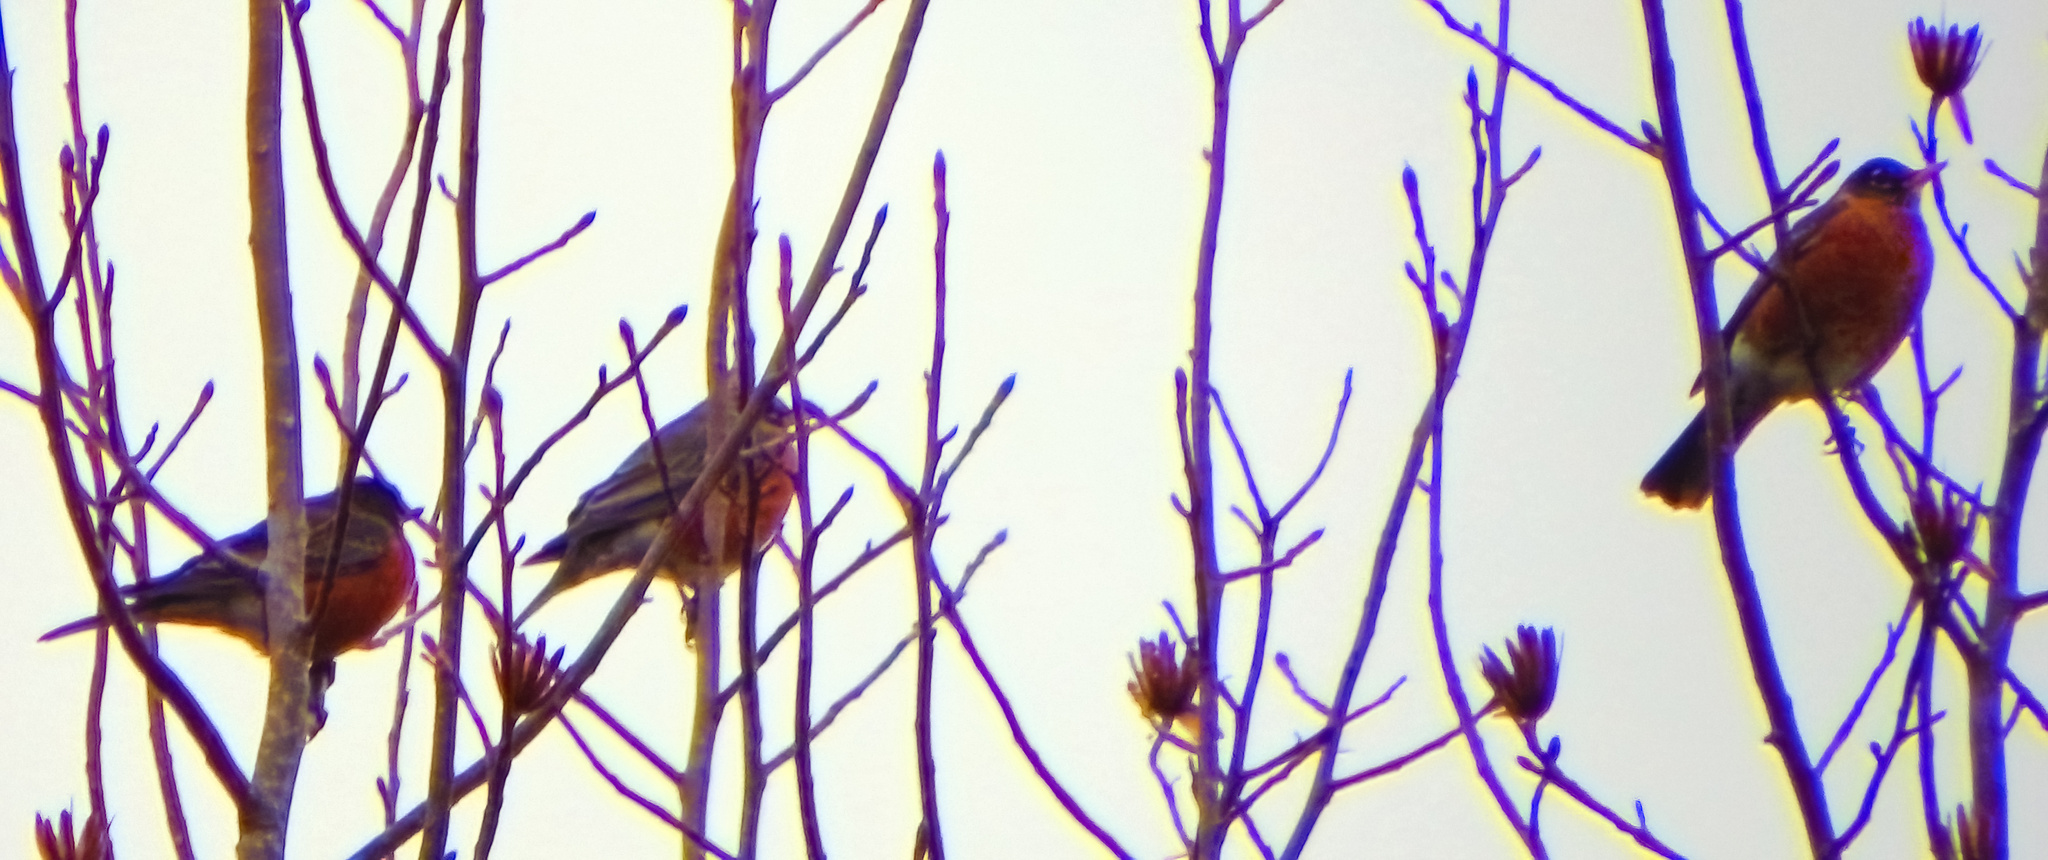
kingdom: Animalia
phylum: Chordata
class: Aves
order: Passeriformes
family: Turdidae
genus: Turdus
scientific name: Turdus migratorius
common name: American robin
